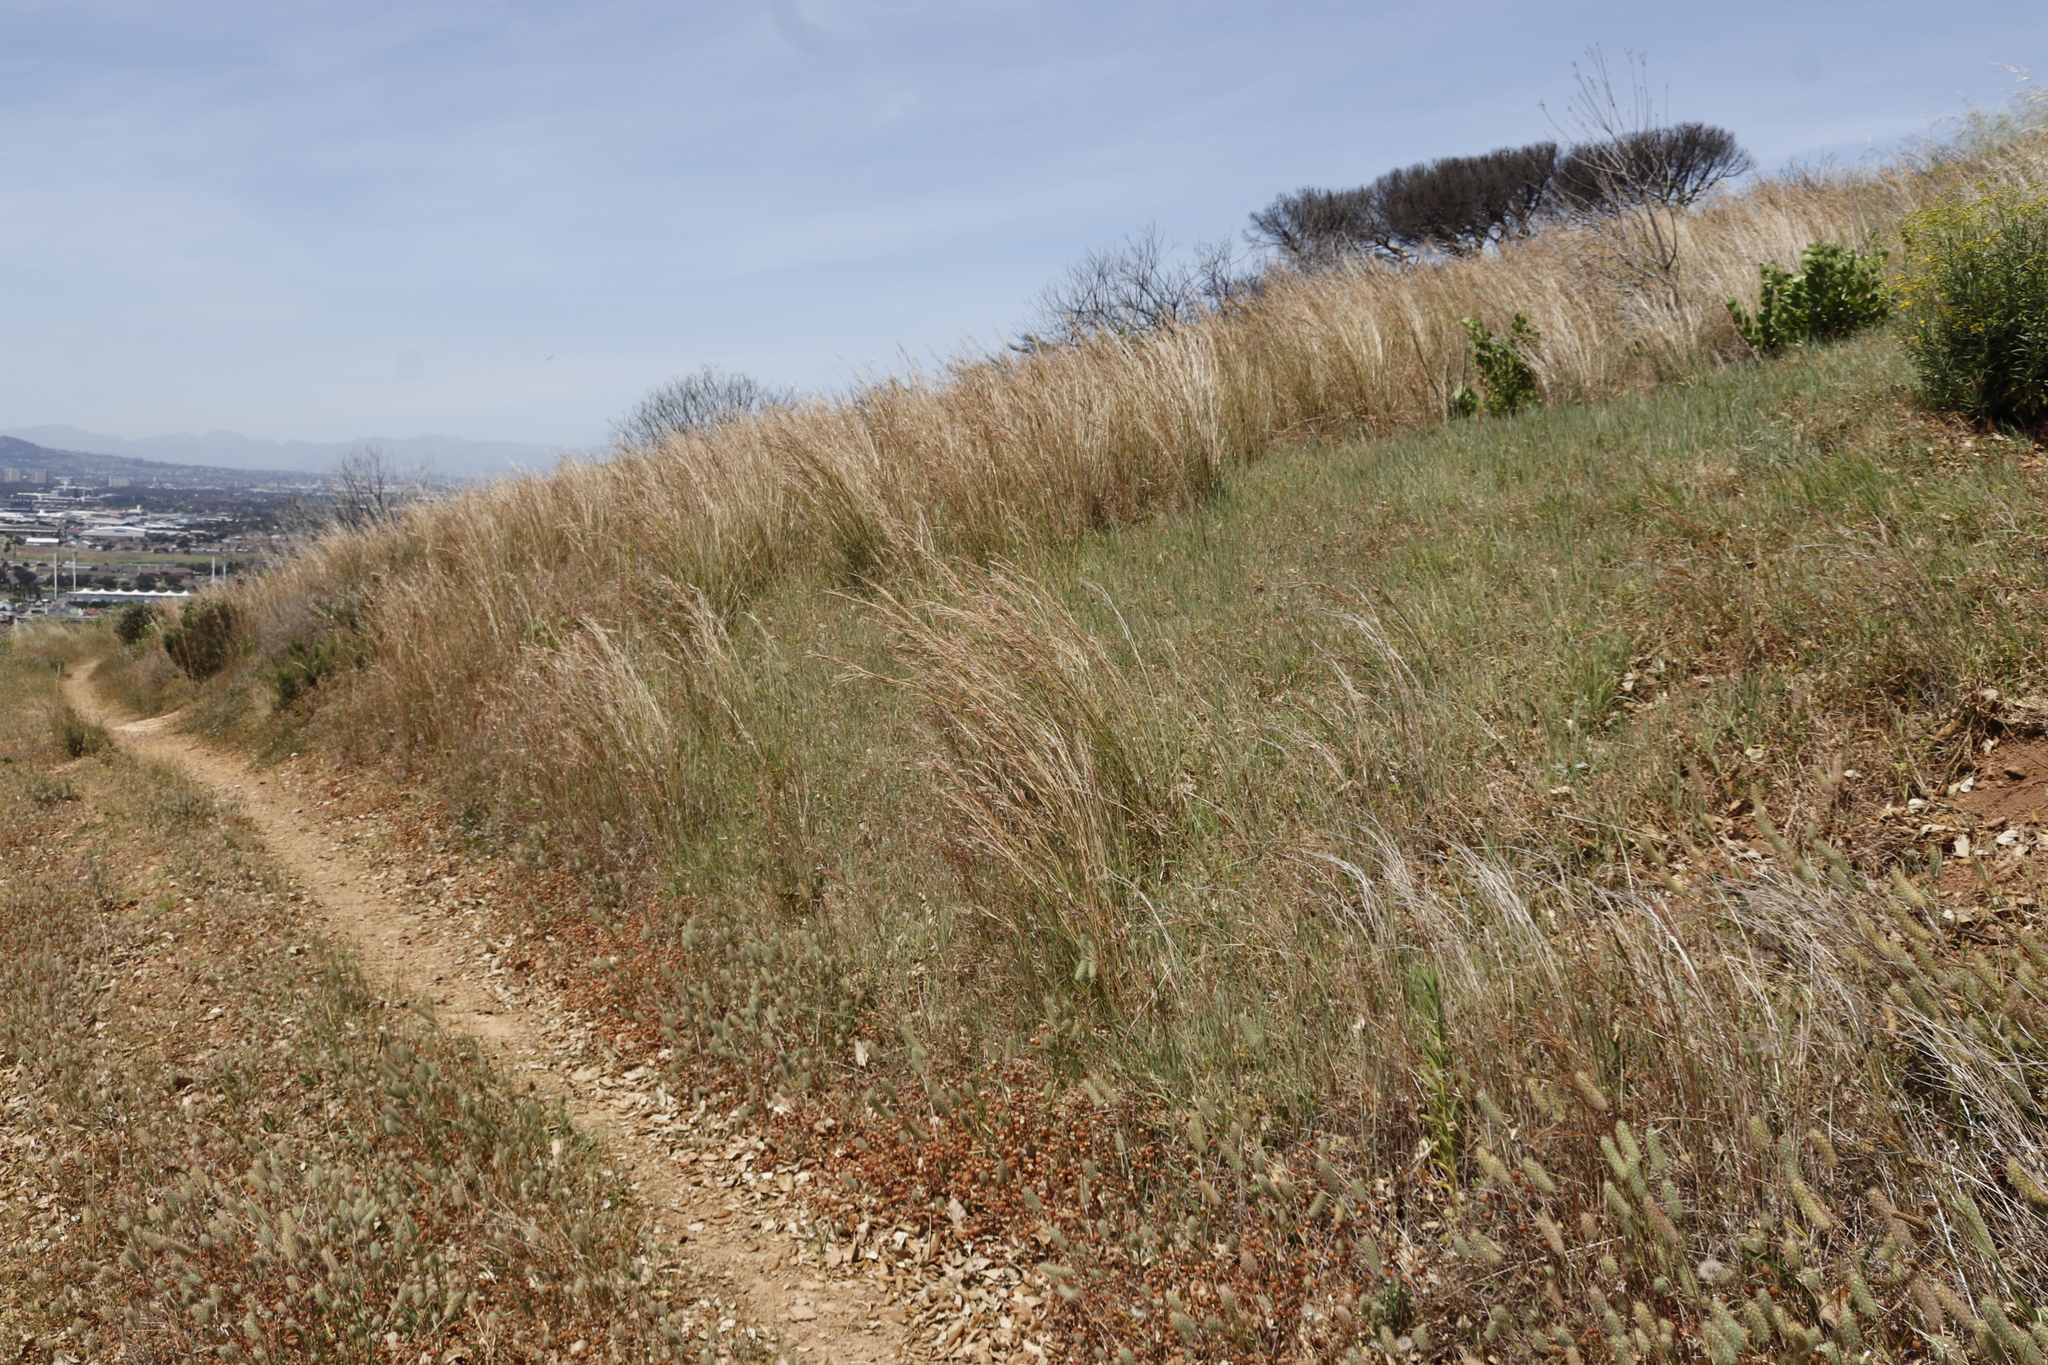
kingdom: Plantae
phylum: Tracheophyta
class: Liliopsida
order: Poales
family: Poaceae
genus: Hyparrhenia
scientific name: Hyparrhenia hirta
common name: Thatching grass
